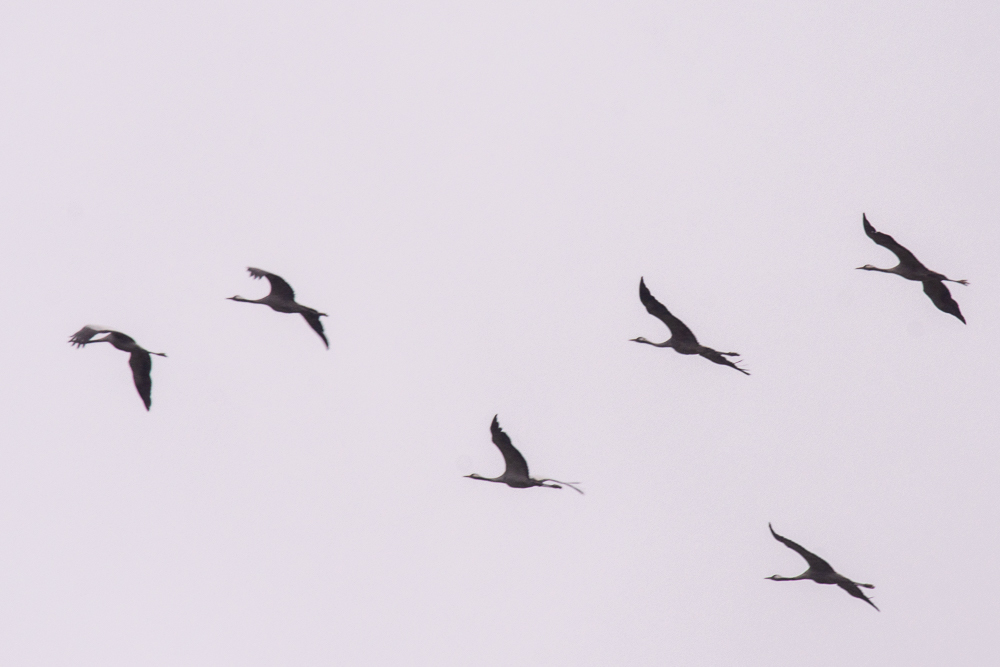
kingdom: Animalia
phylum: Chordata
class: Aves
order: Gruiformes
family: Gruidae
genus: Grus
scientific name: Grus grus
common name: Common crane
